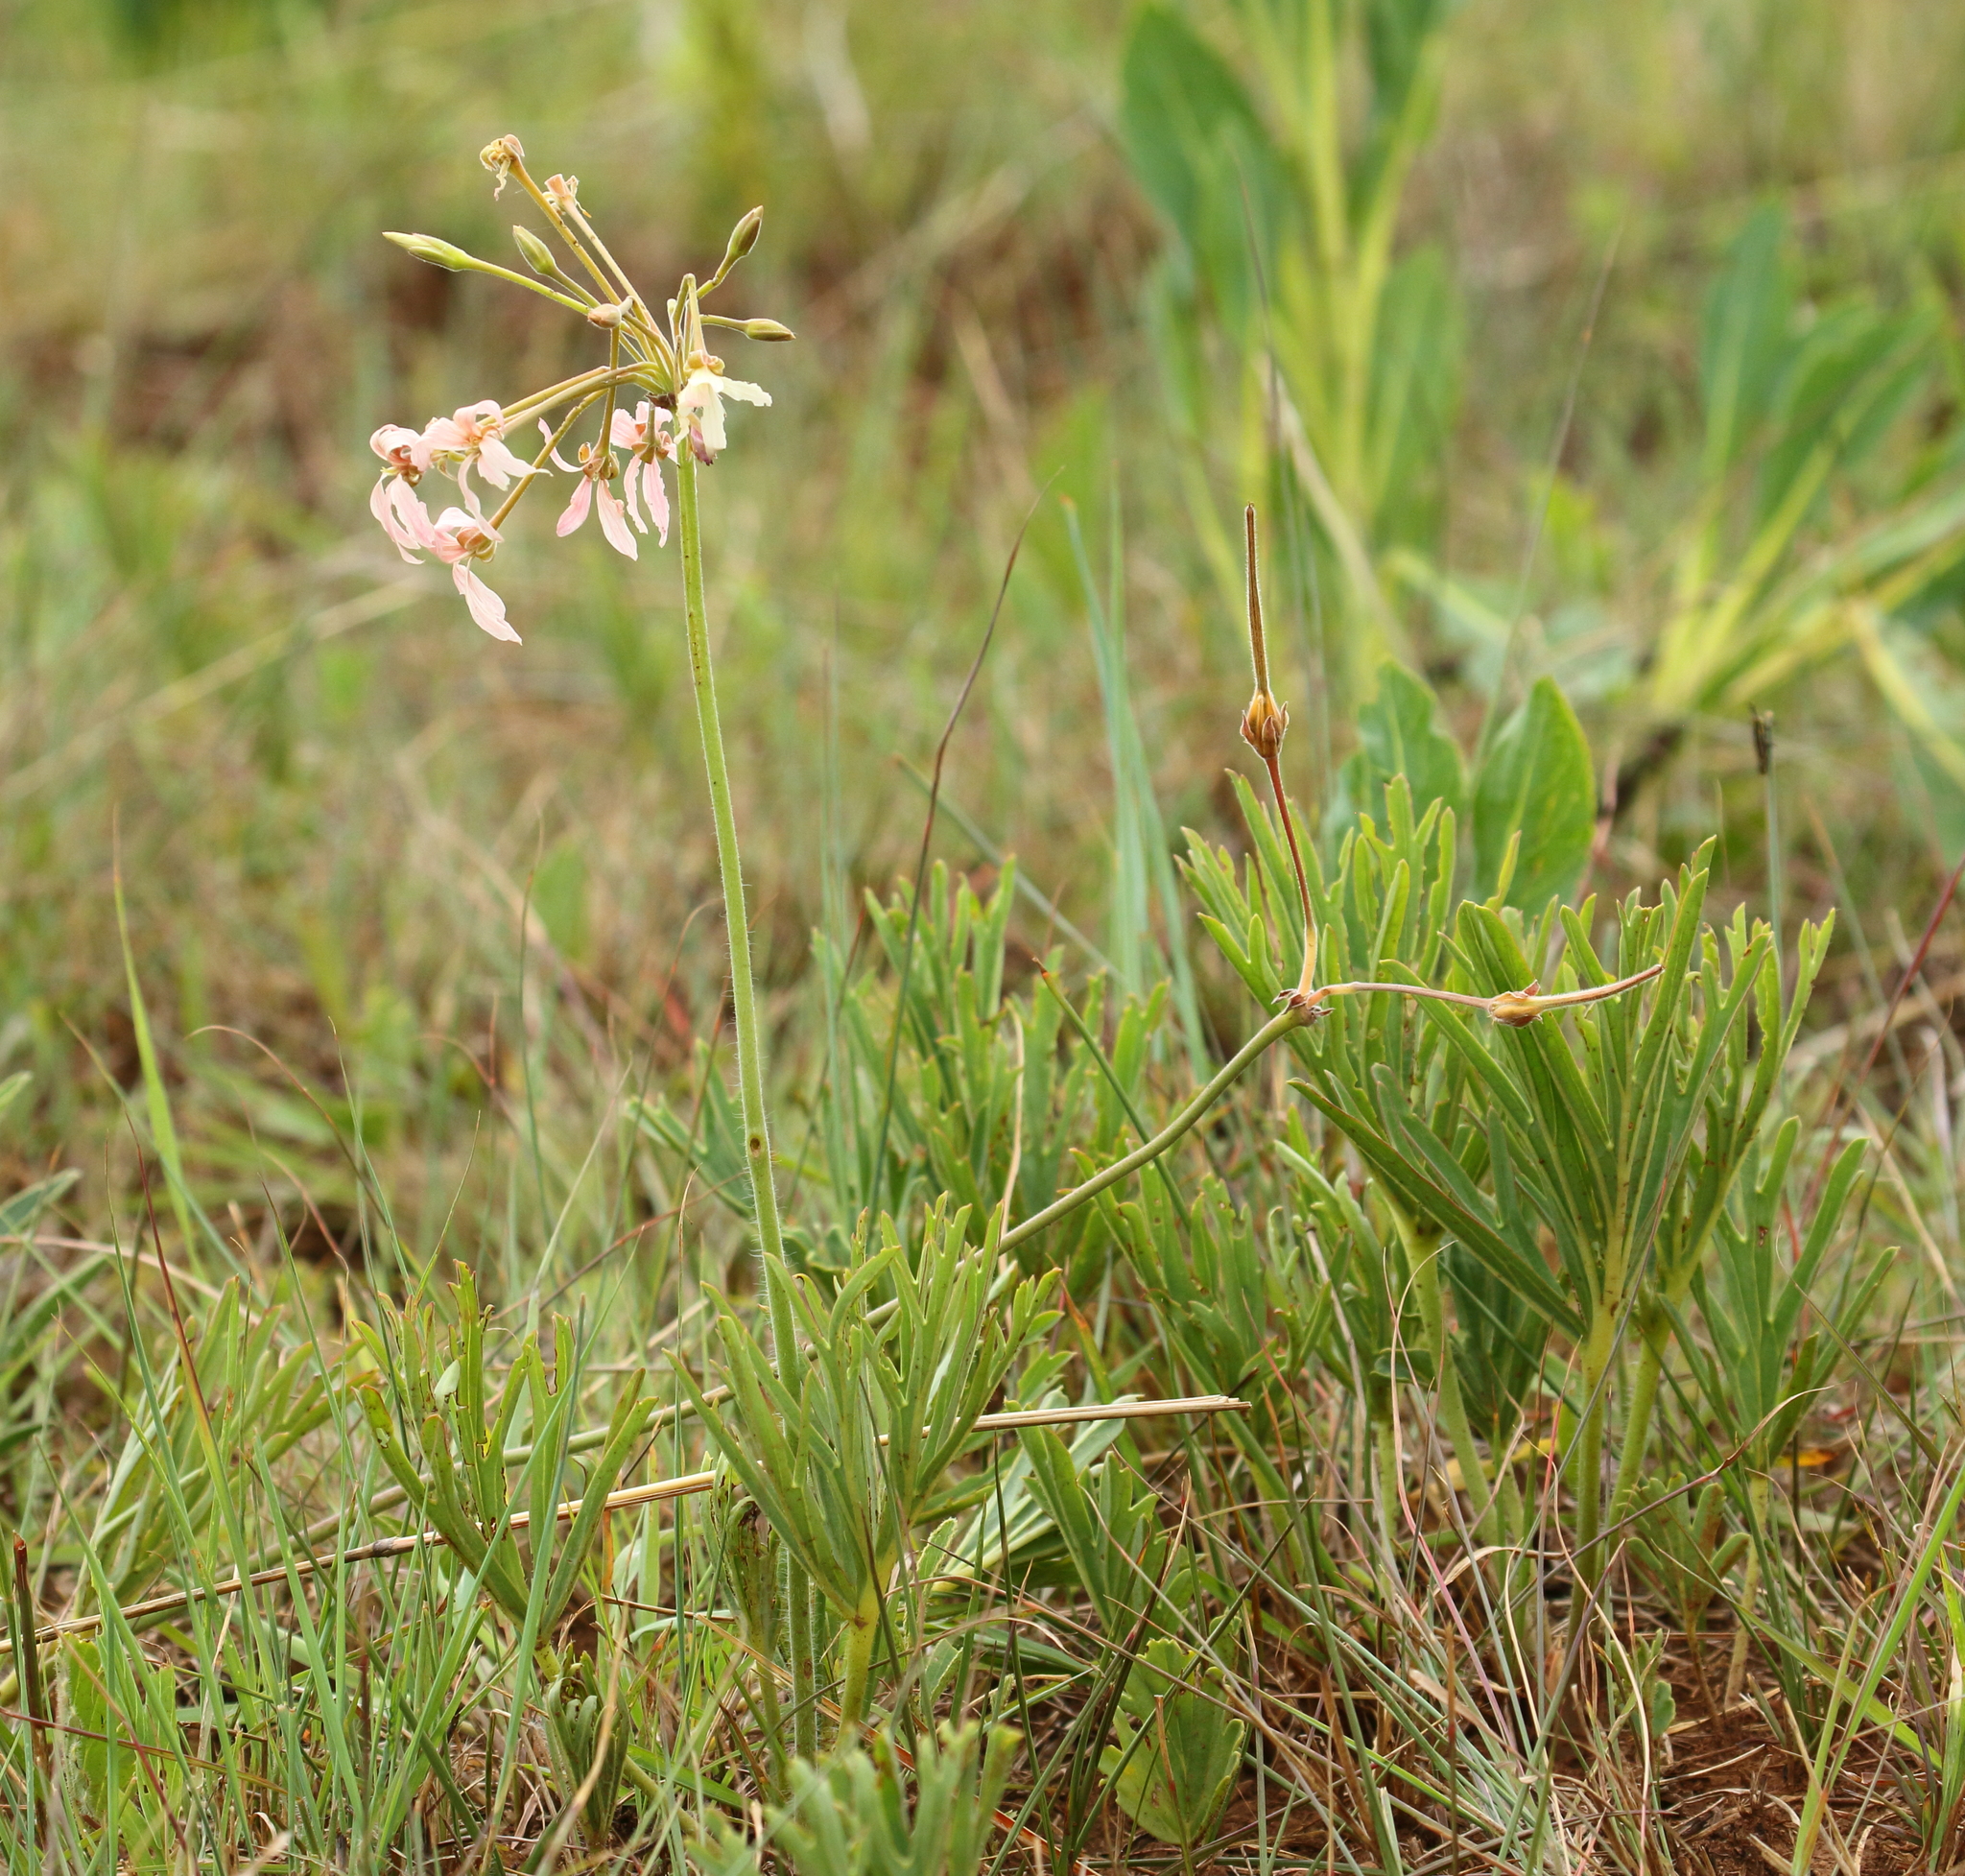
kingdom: Plantae
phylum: Tracheophyta
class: Magnoliopsida
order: Geraniales
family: Geraniaceae
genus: Pelargonium
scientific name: Pelargonium luridum
